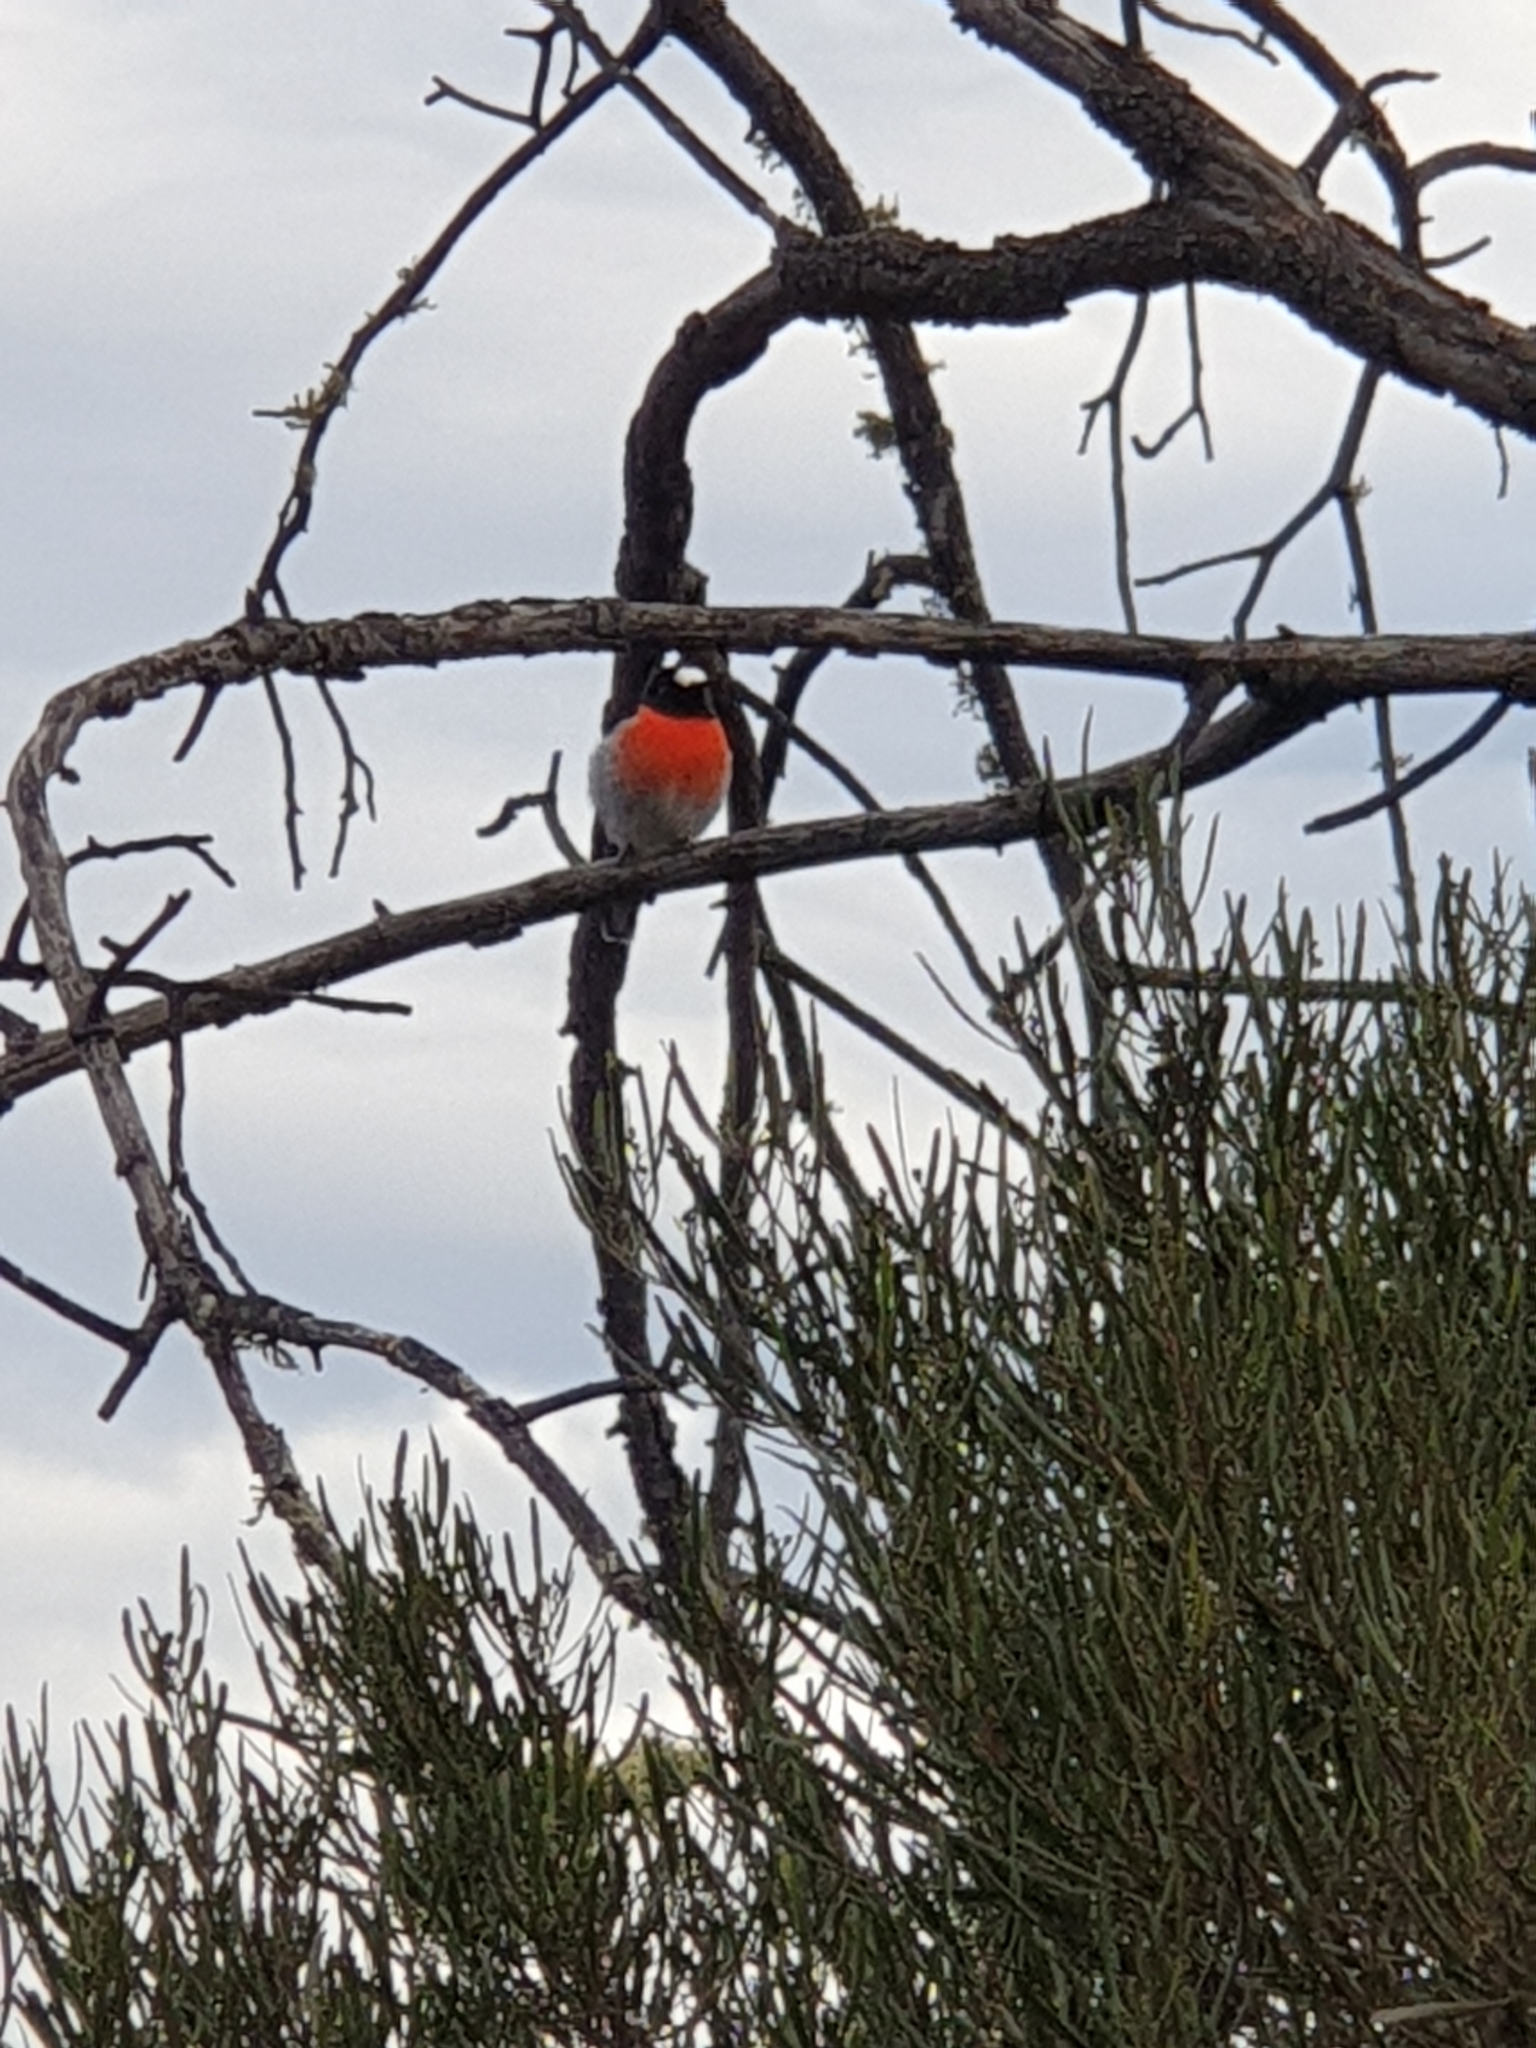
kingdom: Animalia
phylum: Chordata
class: Aves
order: Passeriformes
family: Petroicidae
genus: Petroica
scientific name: Petroica boodang
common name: Scarlet robin
